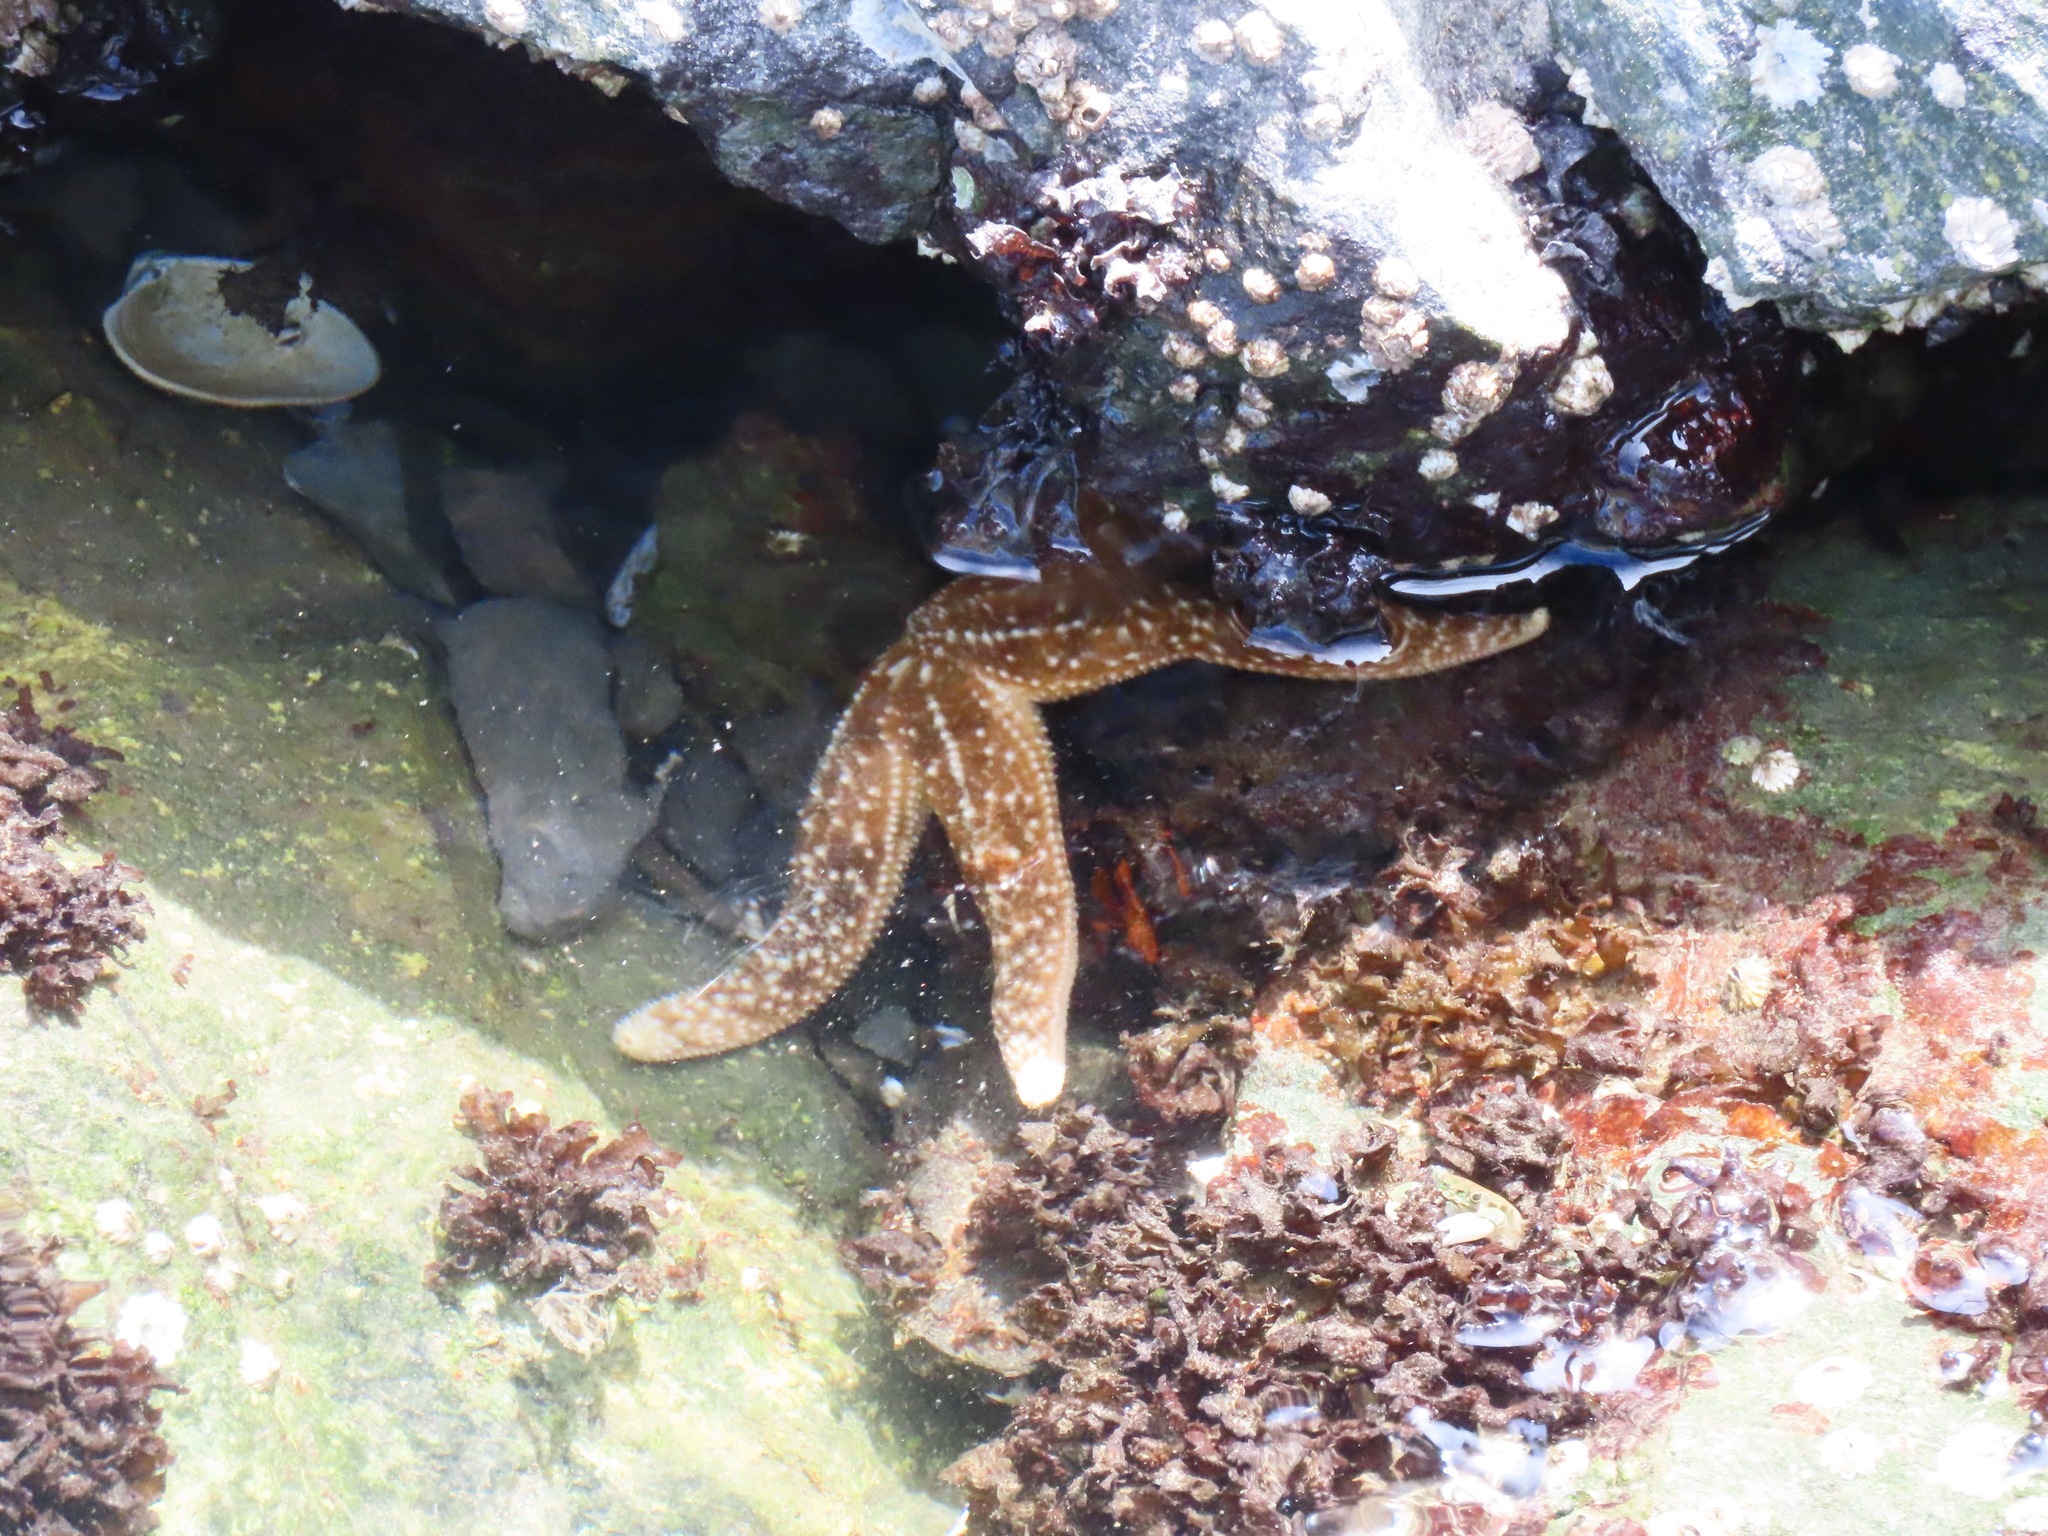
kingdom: Animalia
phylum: Echinodermata
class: Asteroidea
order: Forcipulatida
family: Asteriidae
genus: Evasterias
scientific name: Evasterias troschelii
